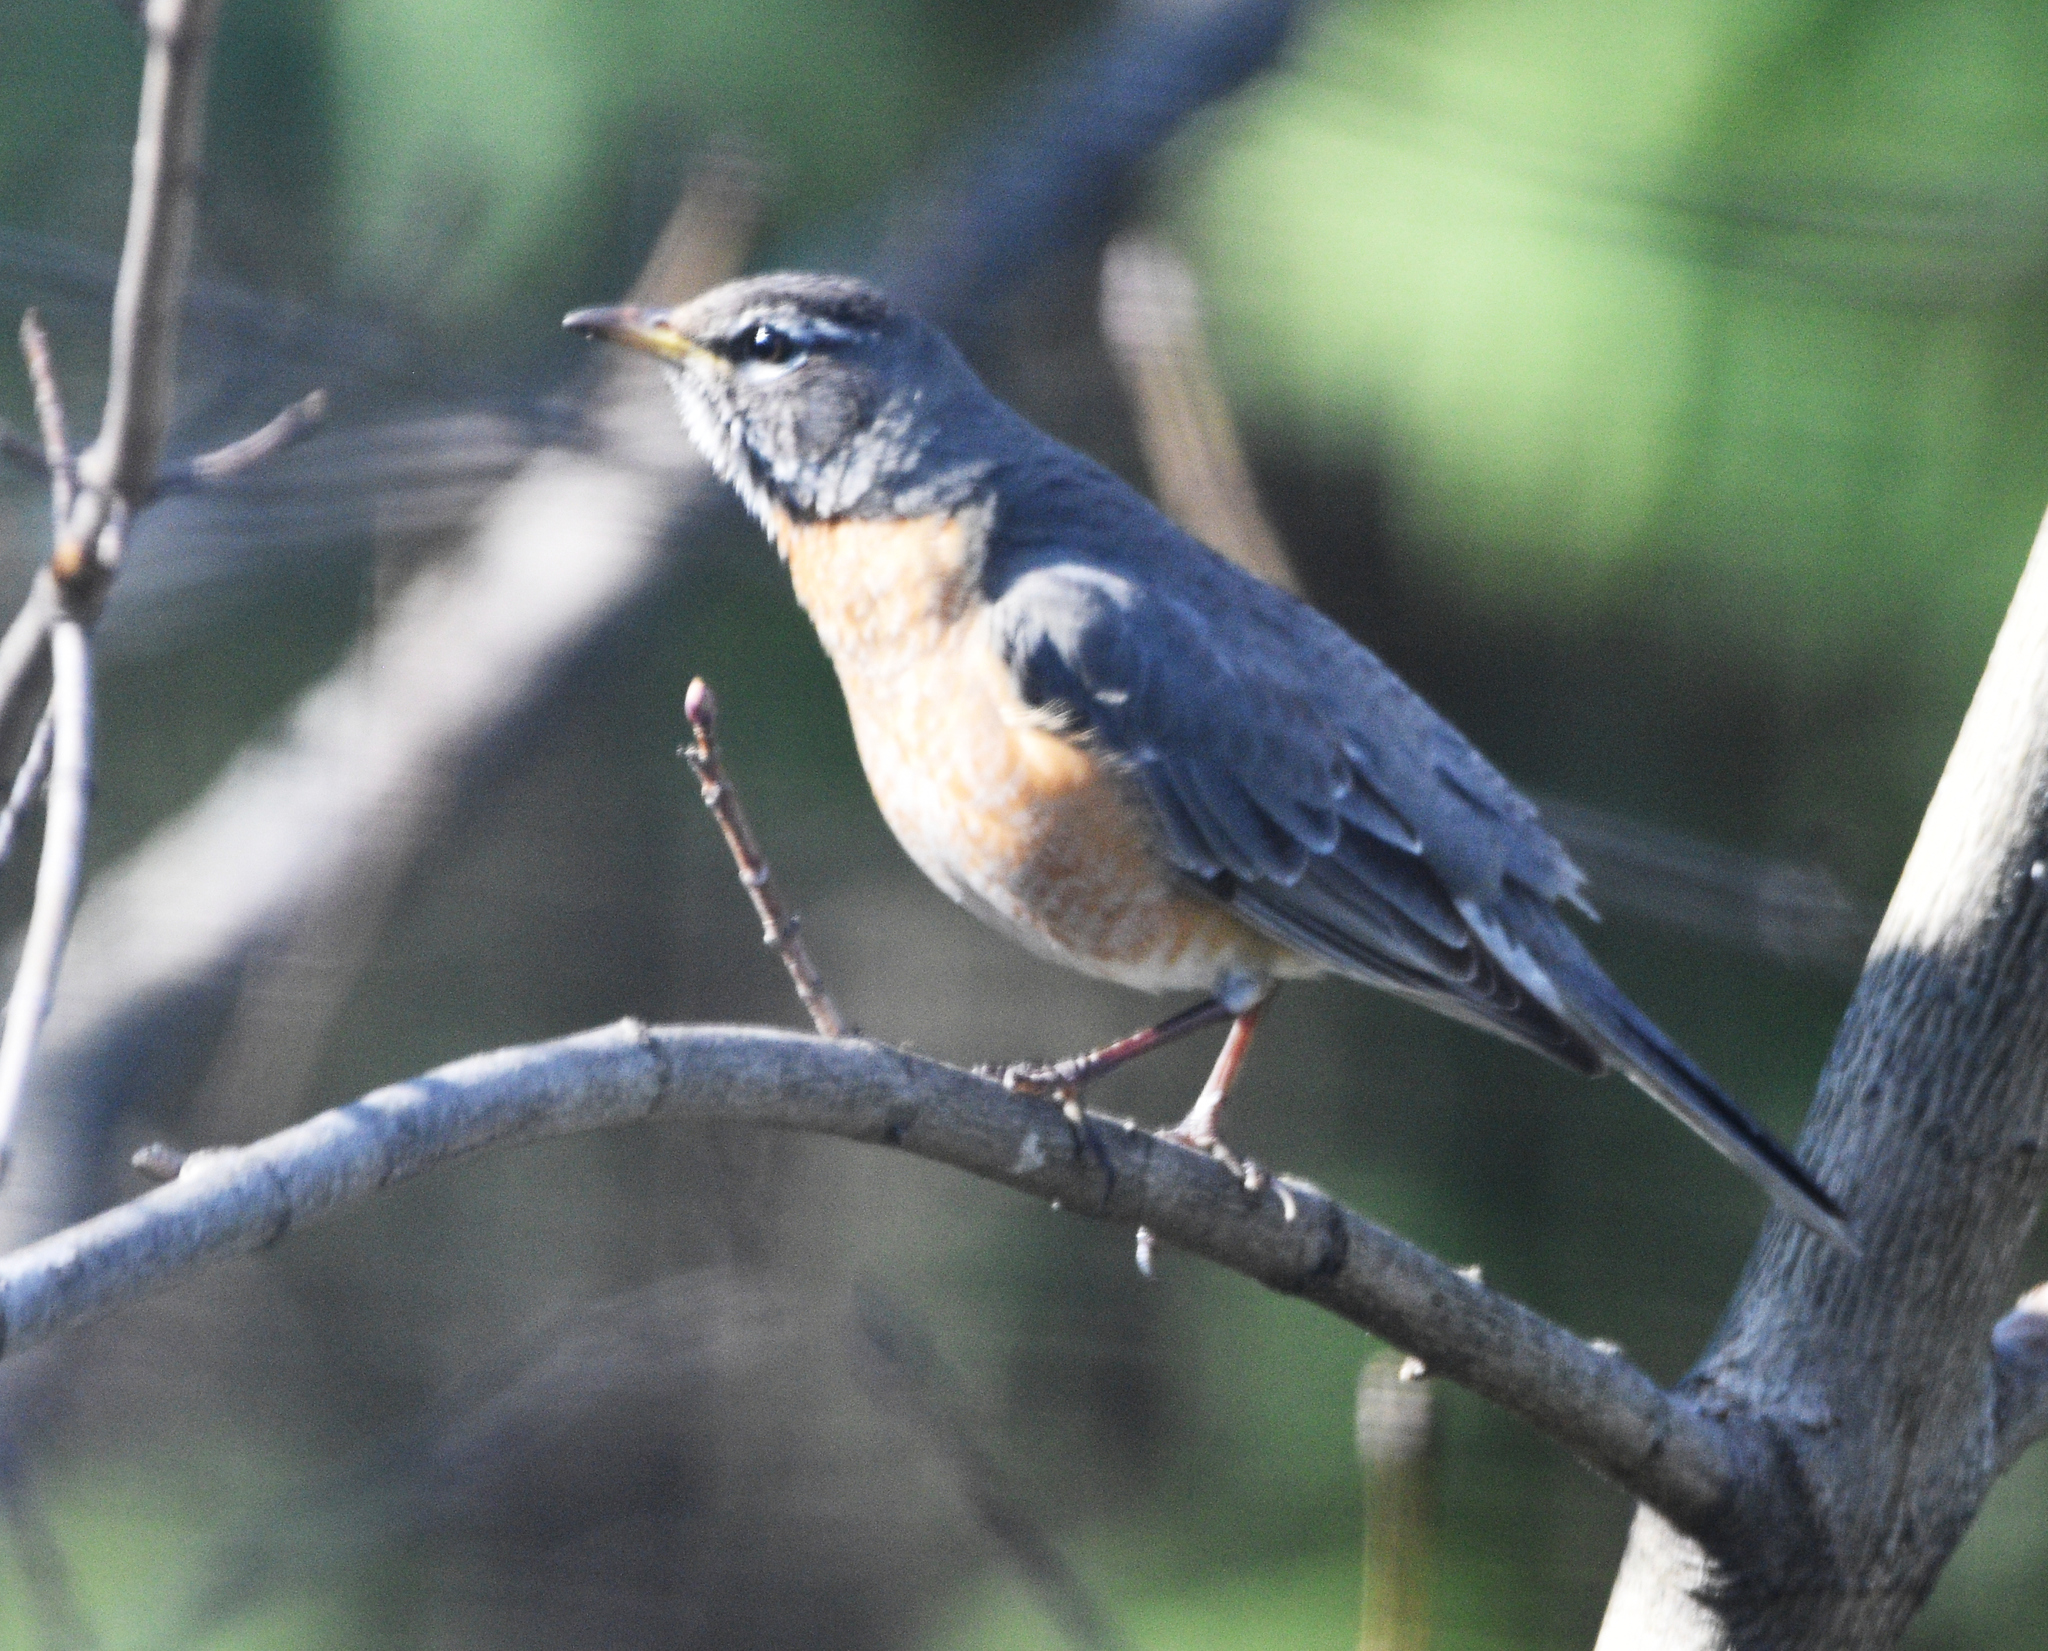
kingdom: Animalia
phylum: Chordata
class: Aves
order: Passeriformes
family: Turdidae
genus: Turdus
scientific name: Turdus migratorius
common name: American robin
